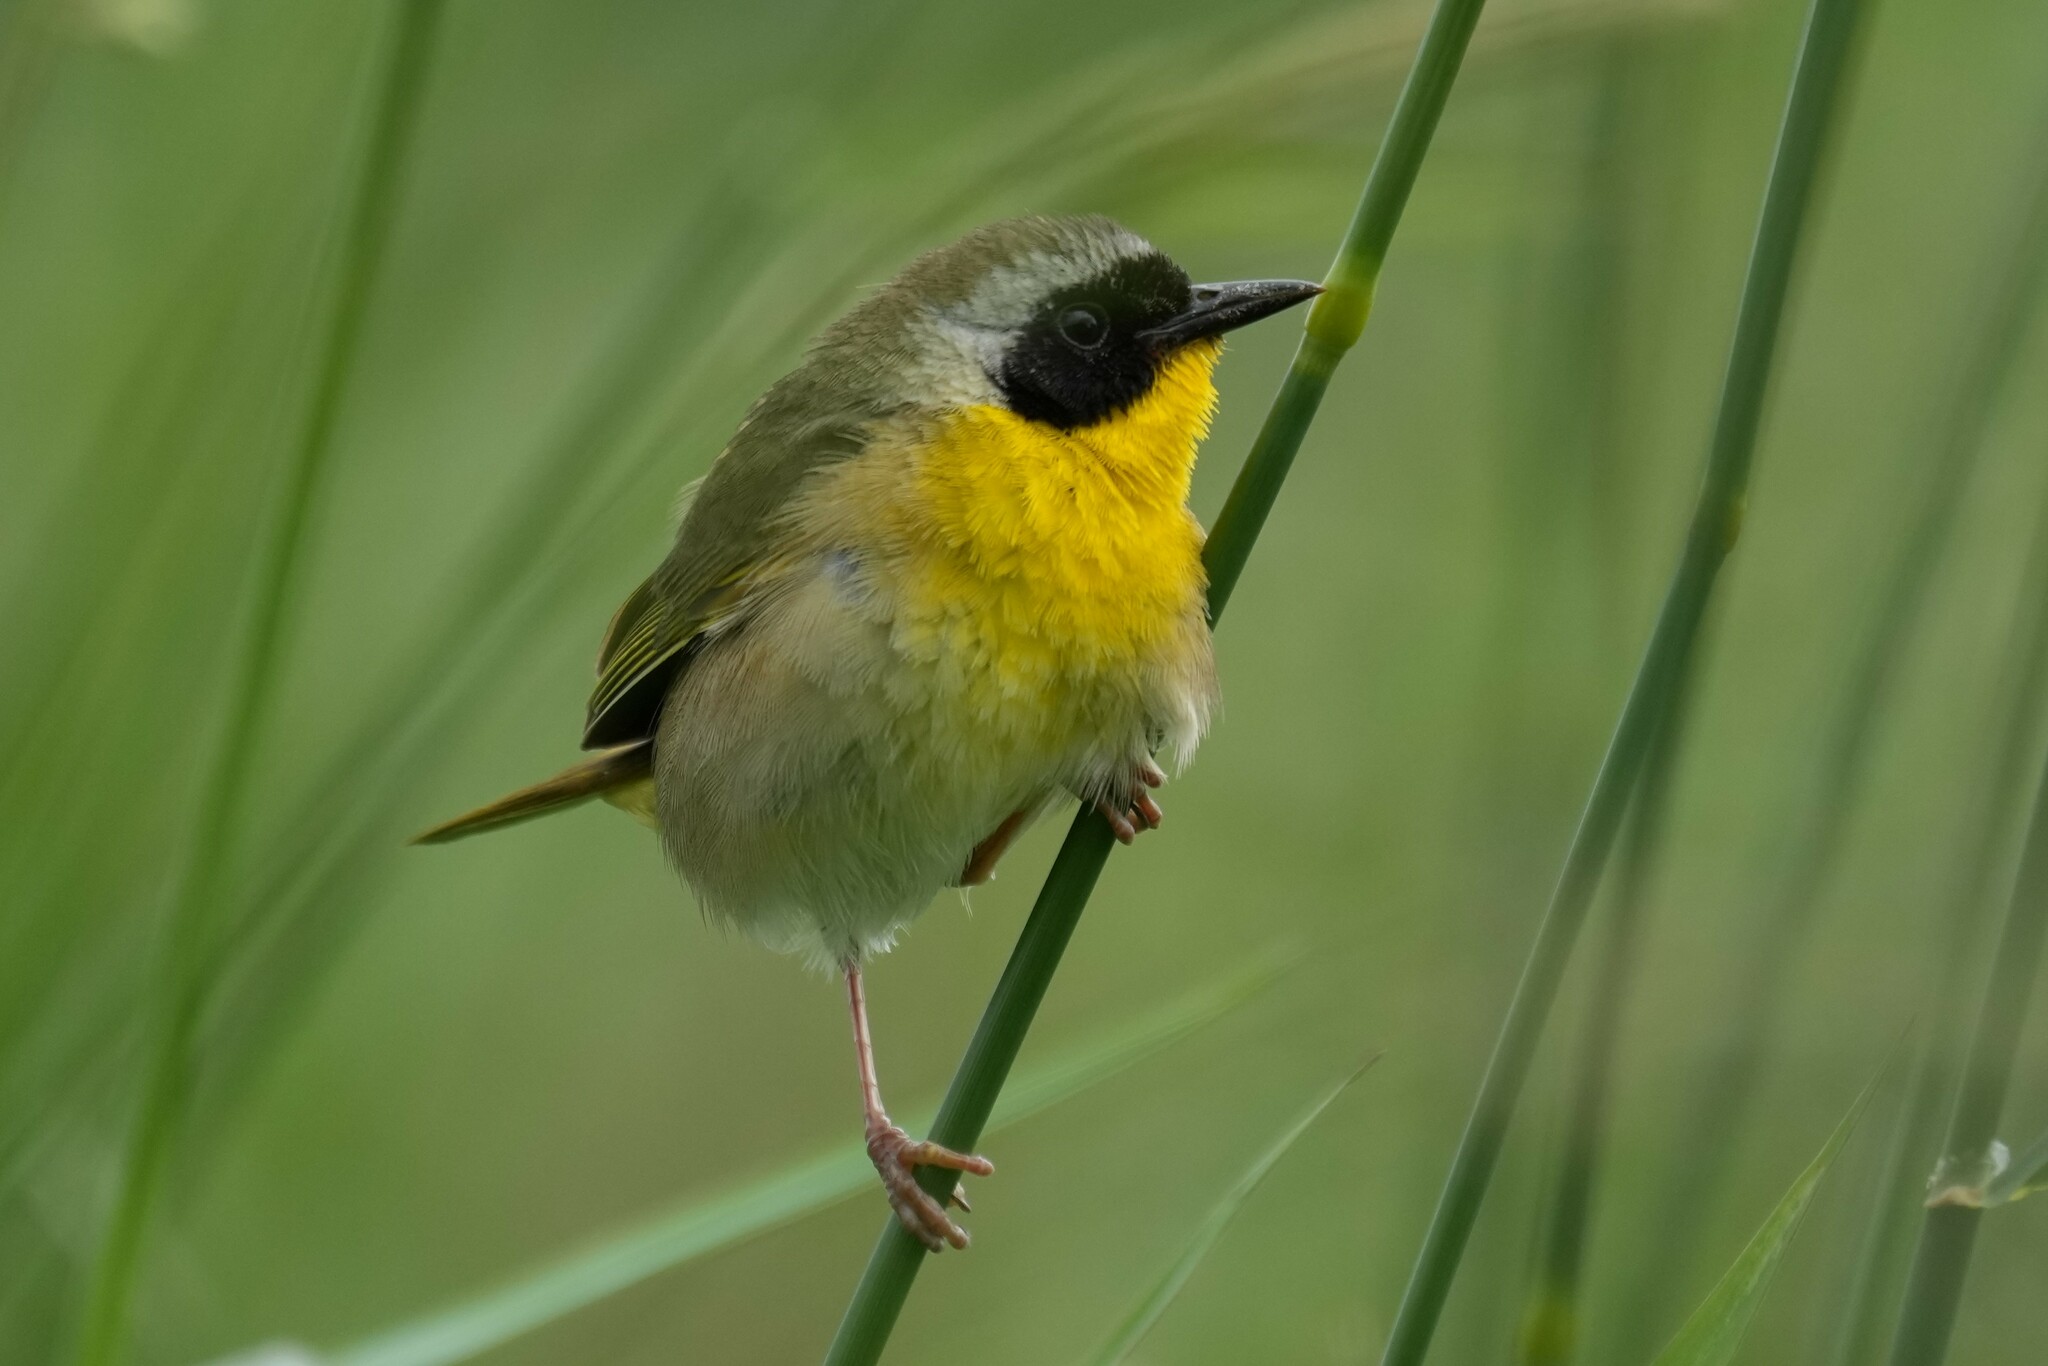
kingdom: Animalia
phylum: Chordata
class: Aves
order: Passeriformes
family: Parulidae
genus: Geothlypis
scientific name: Geothlypis trichas
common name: Common yellowthroat
